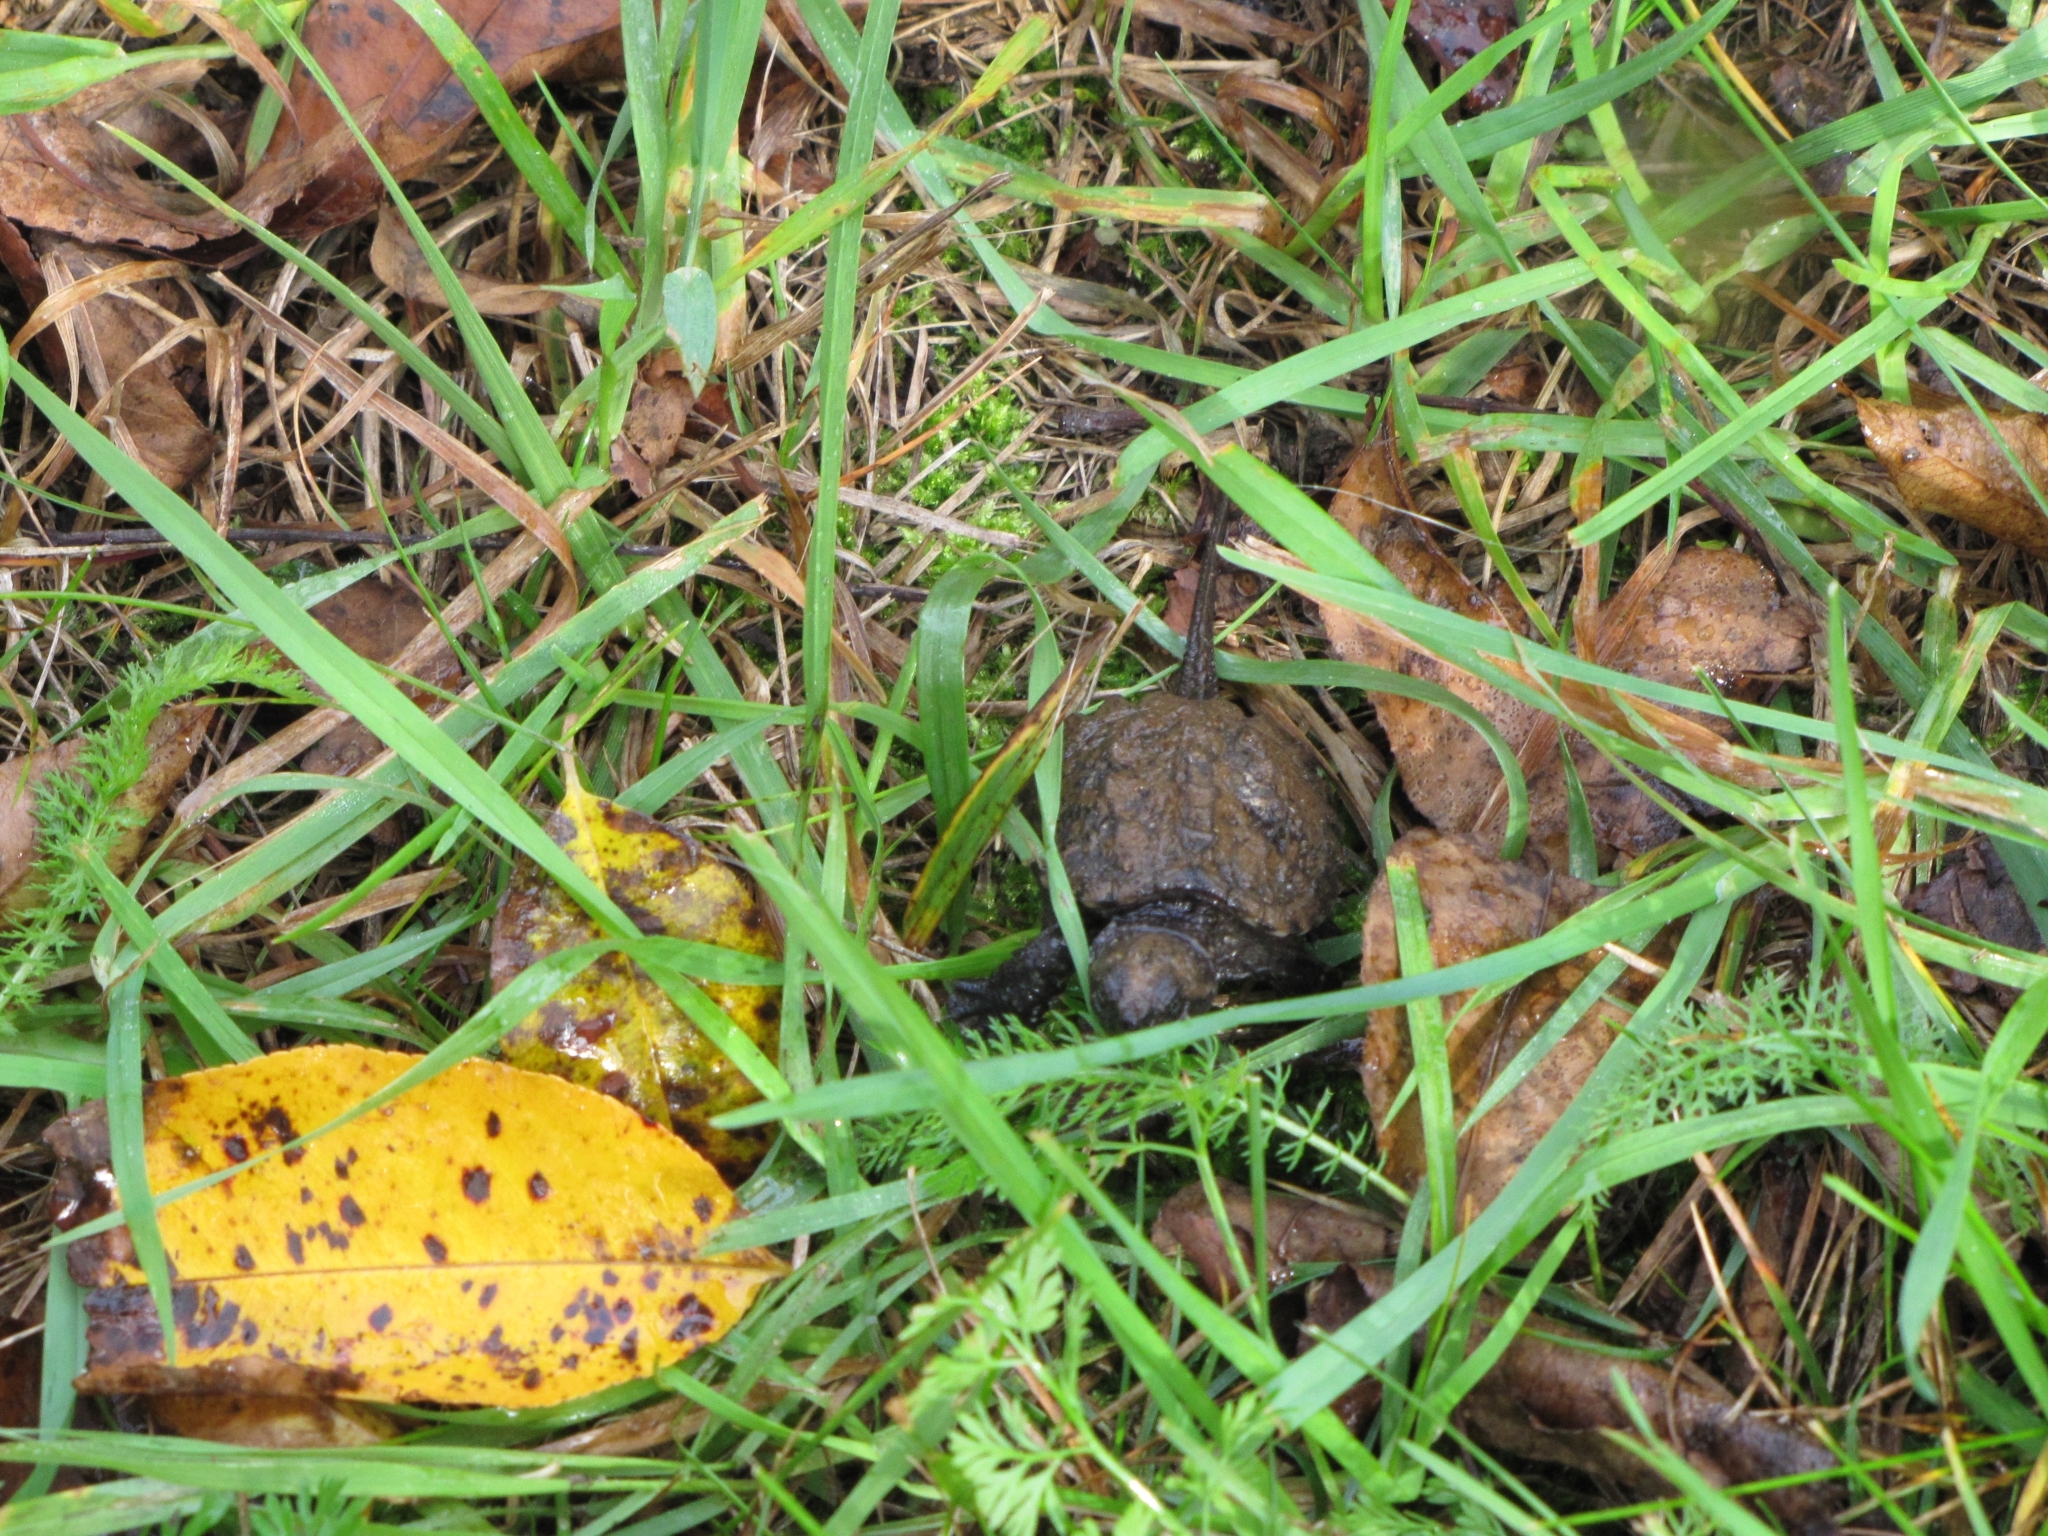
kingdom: Animalia
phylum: Chordata
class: Testudines
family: Chelydridae
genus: Chelydra
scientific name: Chelydra serpentina
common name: Common snapping turtle
